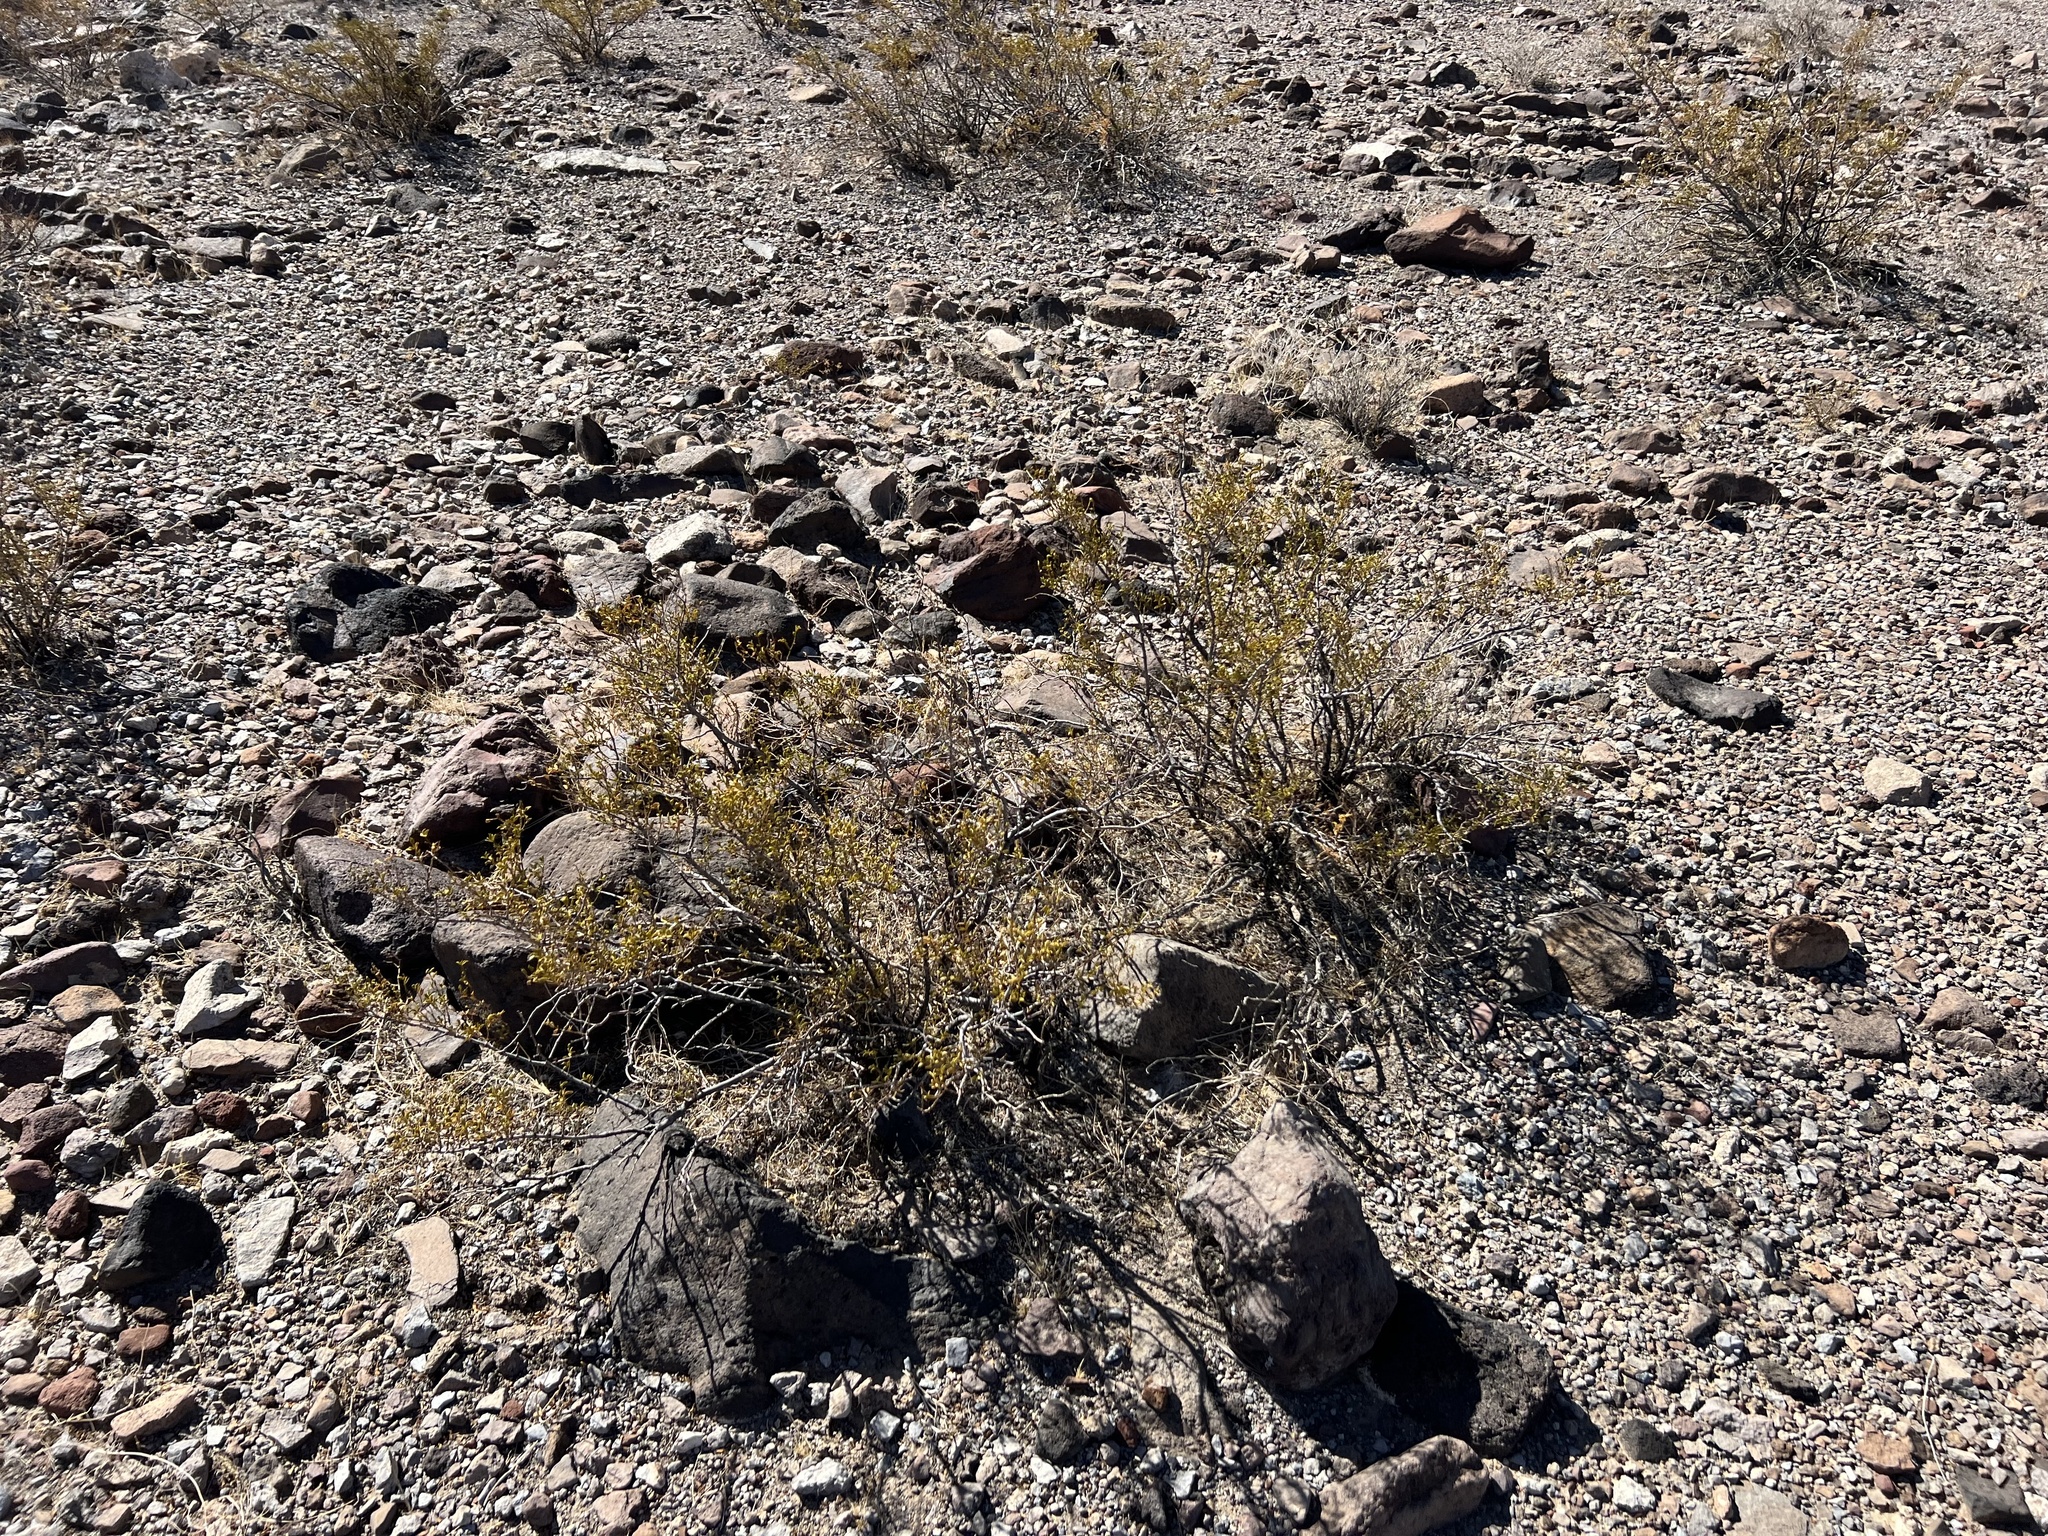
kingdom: Plantae
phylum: Tracheophyta
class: Magnoliopsida
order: Zygophyllales
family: Zygophyllaceae
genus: Larrea
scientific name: Larrea tridentata
